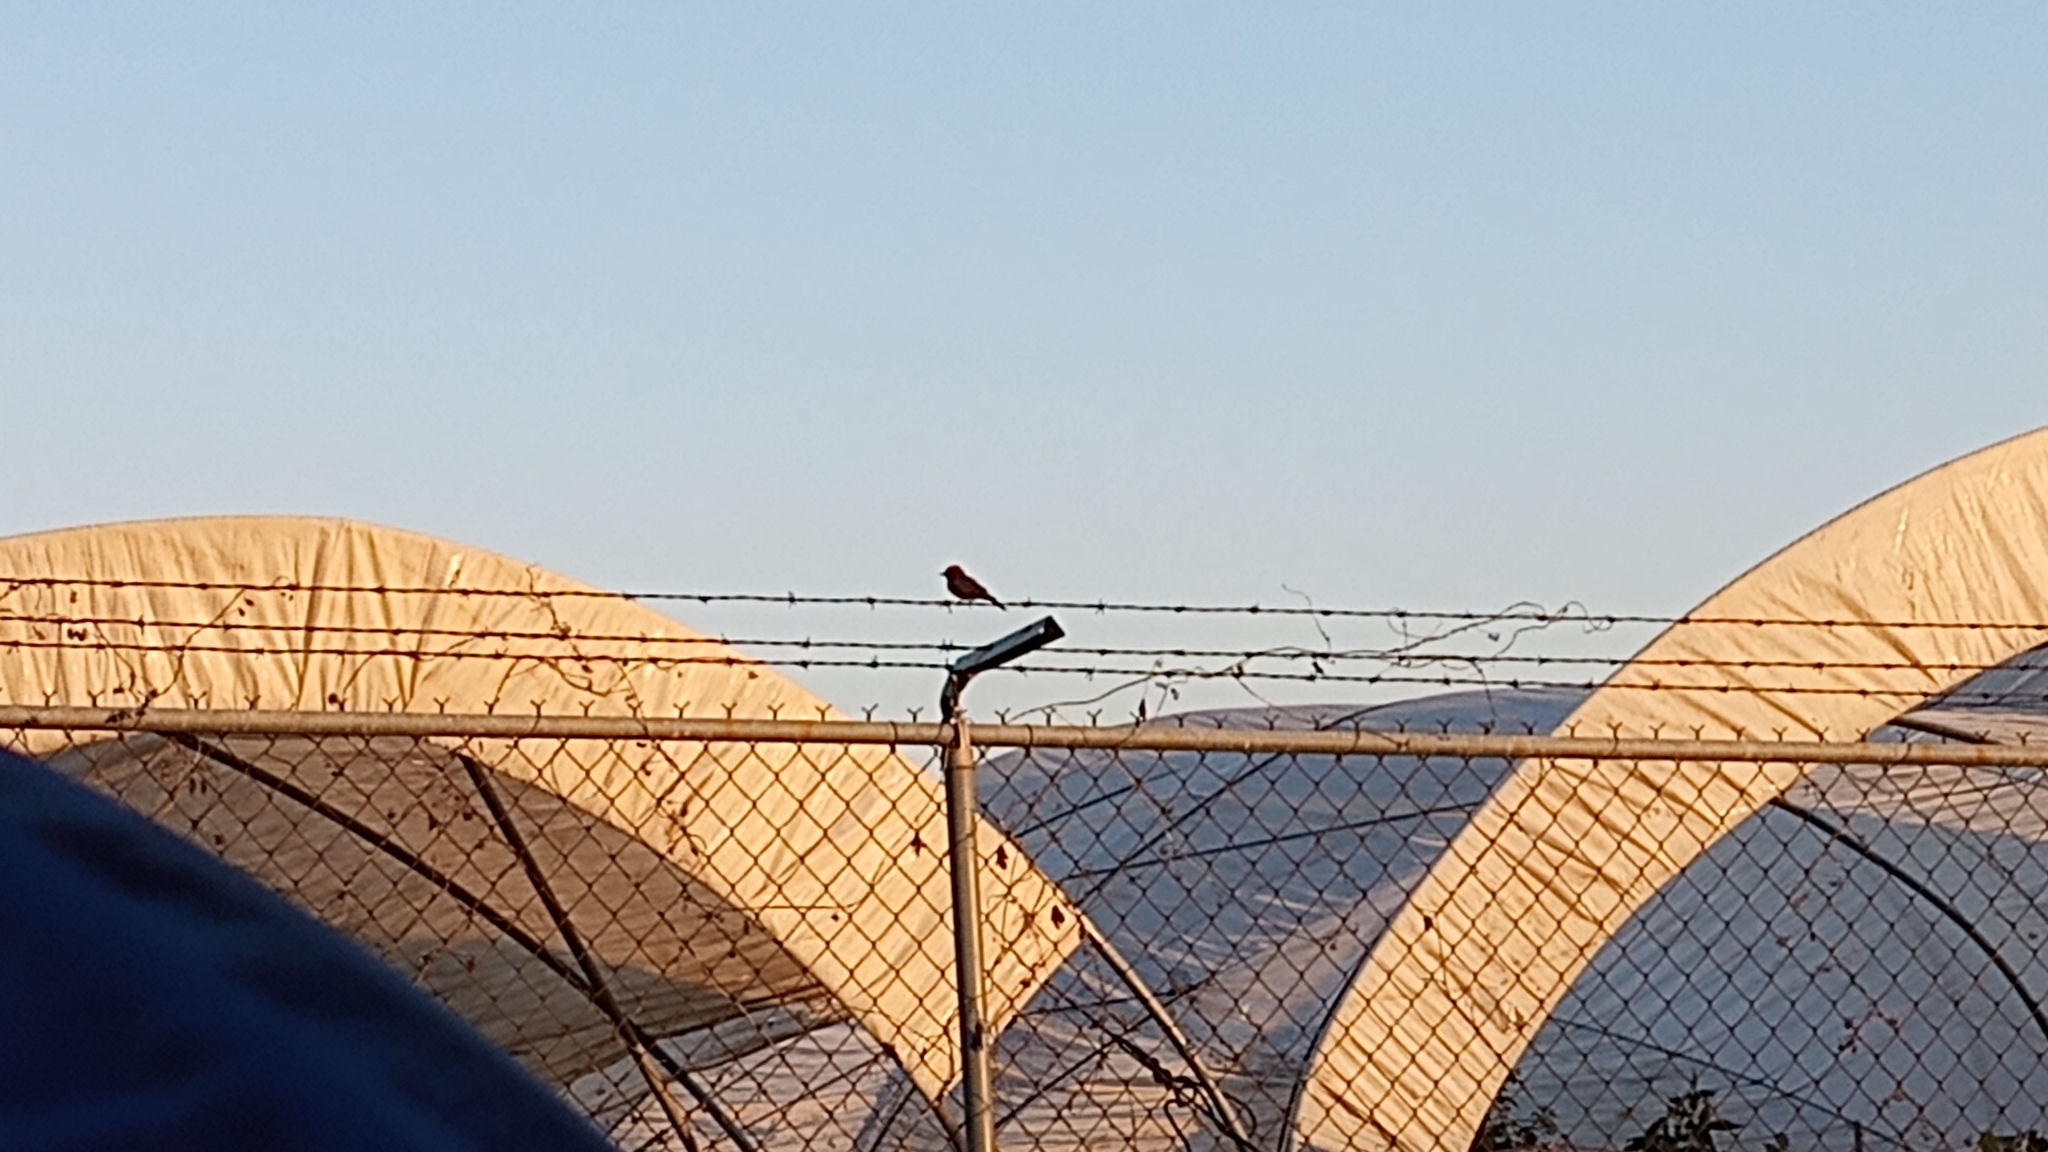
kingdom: Animalia
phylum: Chordata
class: Aves
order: Passeriformes
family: Tyrannidae
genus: Pyrocephalus
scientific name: Pyrocephalus rubinus
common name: Vermilion flycatcher
